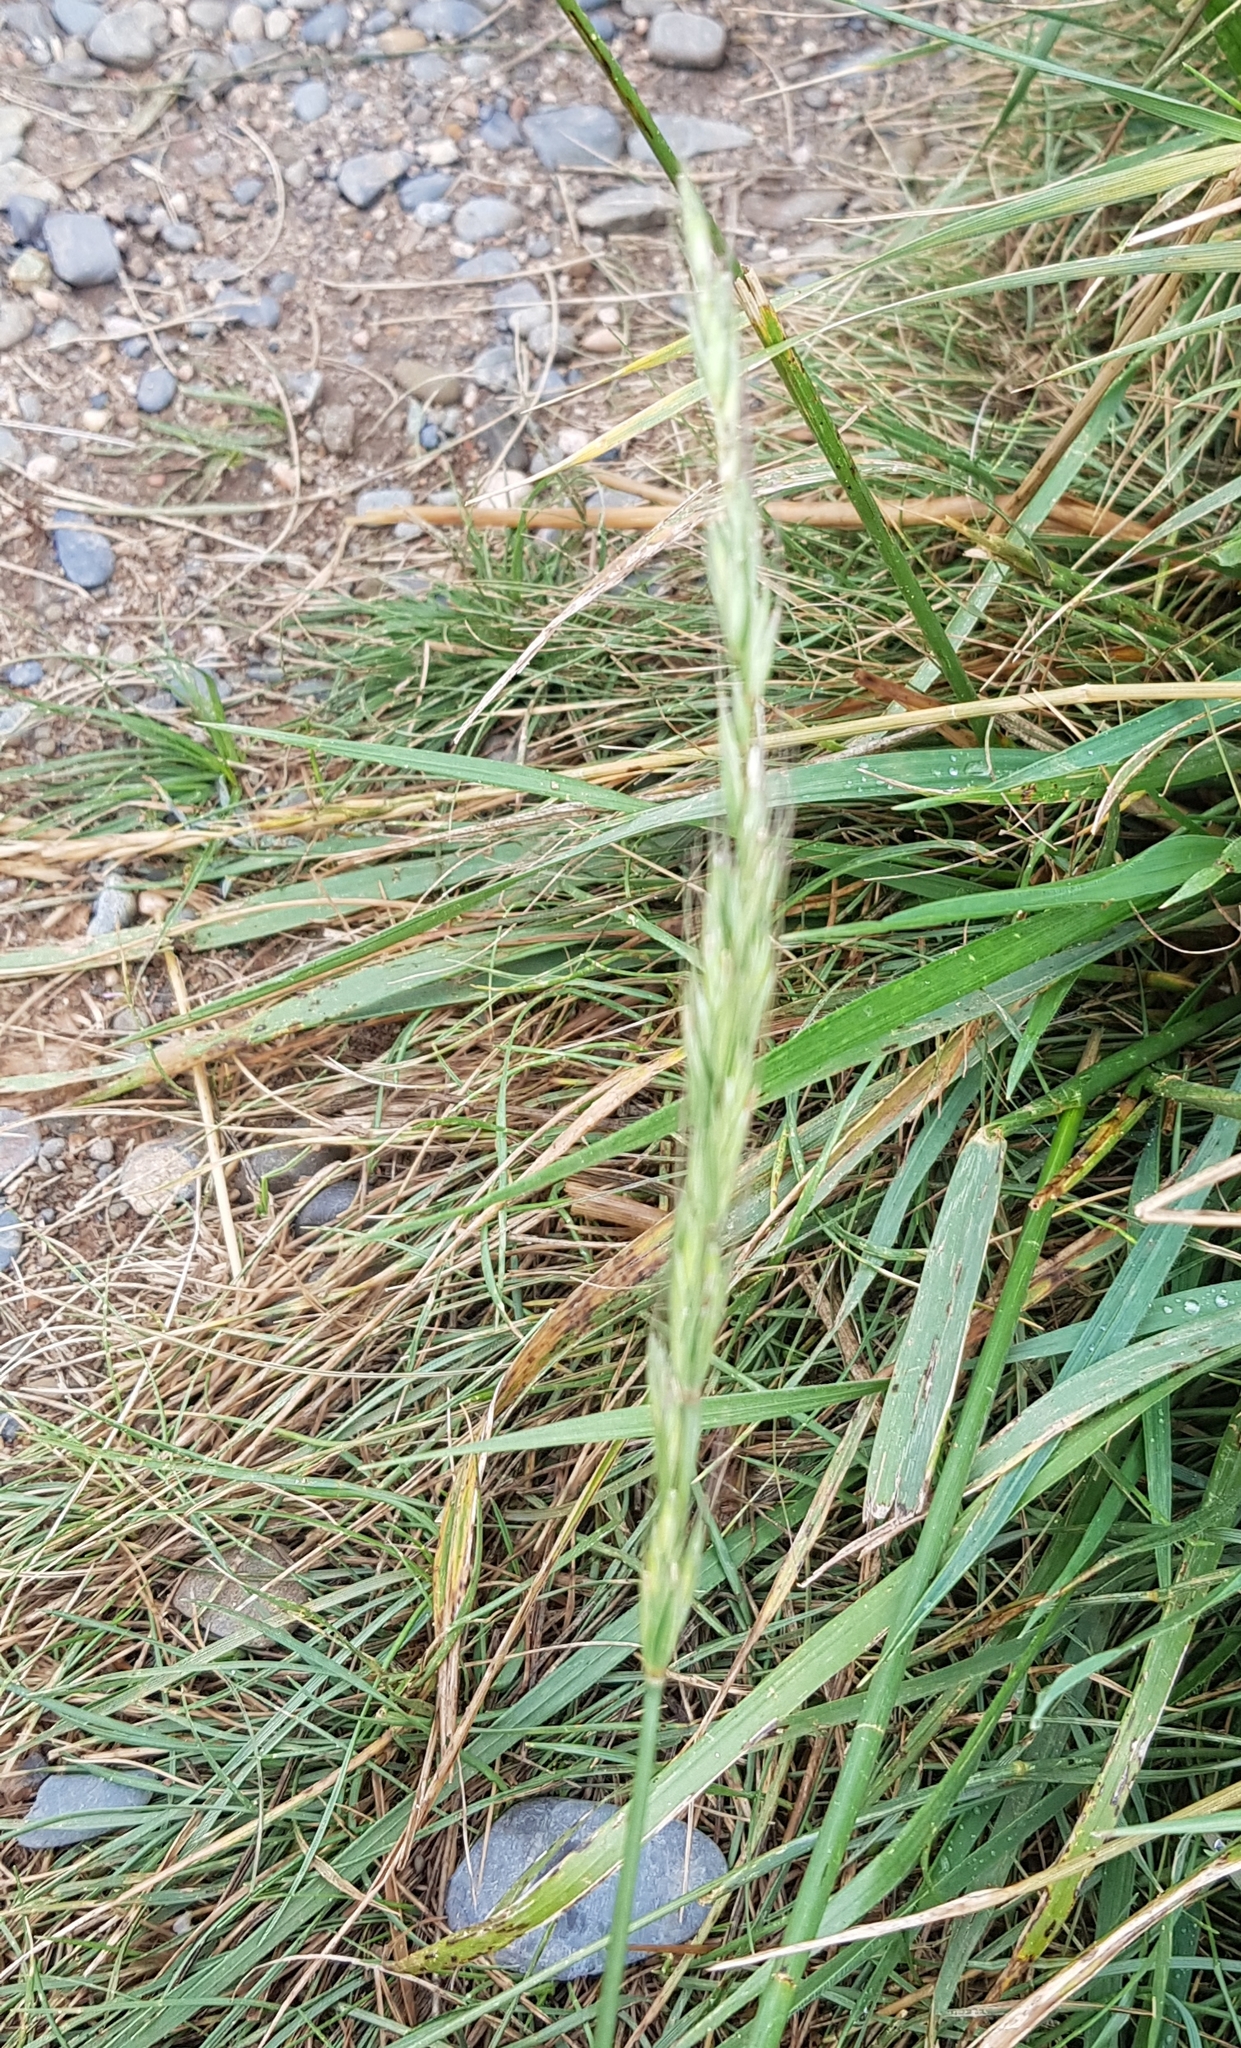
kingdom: Plantae
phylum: Tracheophyta
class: Liliopsida
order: Poales
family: Poaceae
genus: Elymus
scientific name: Elymus repens
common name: Quackgrass
